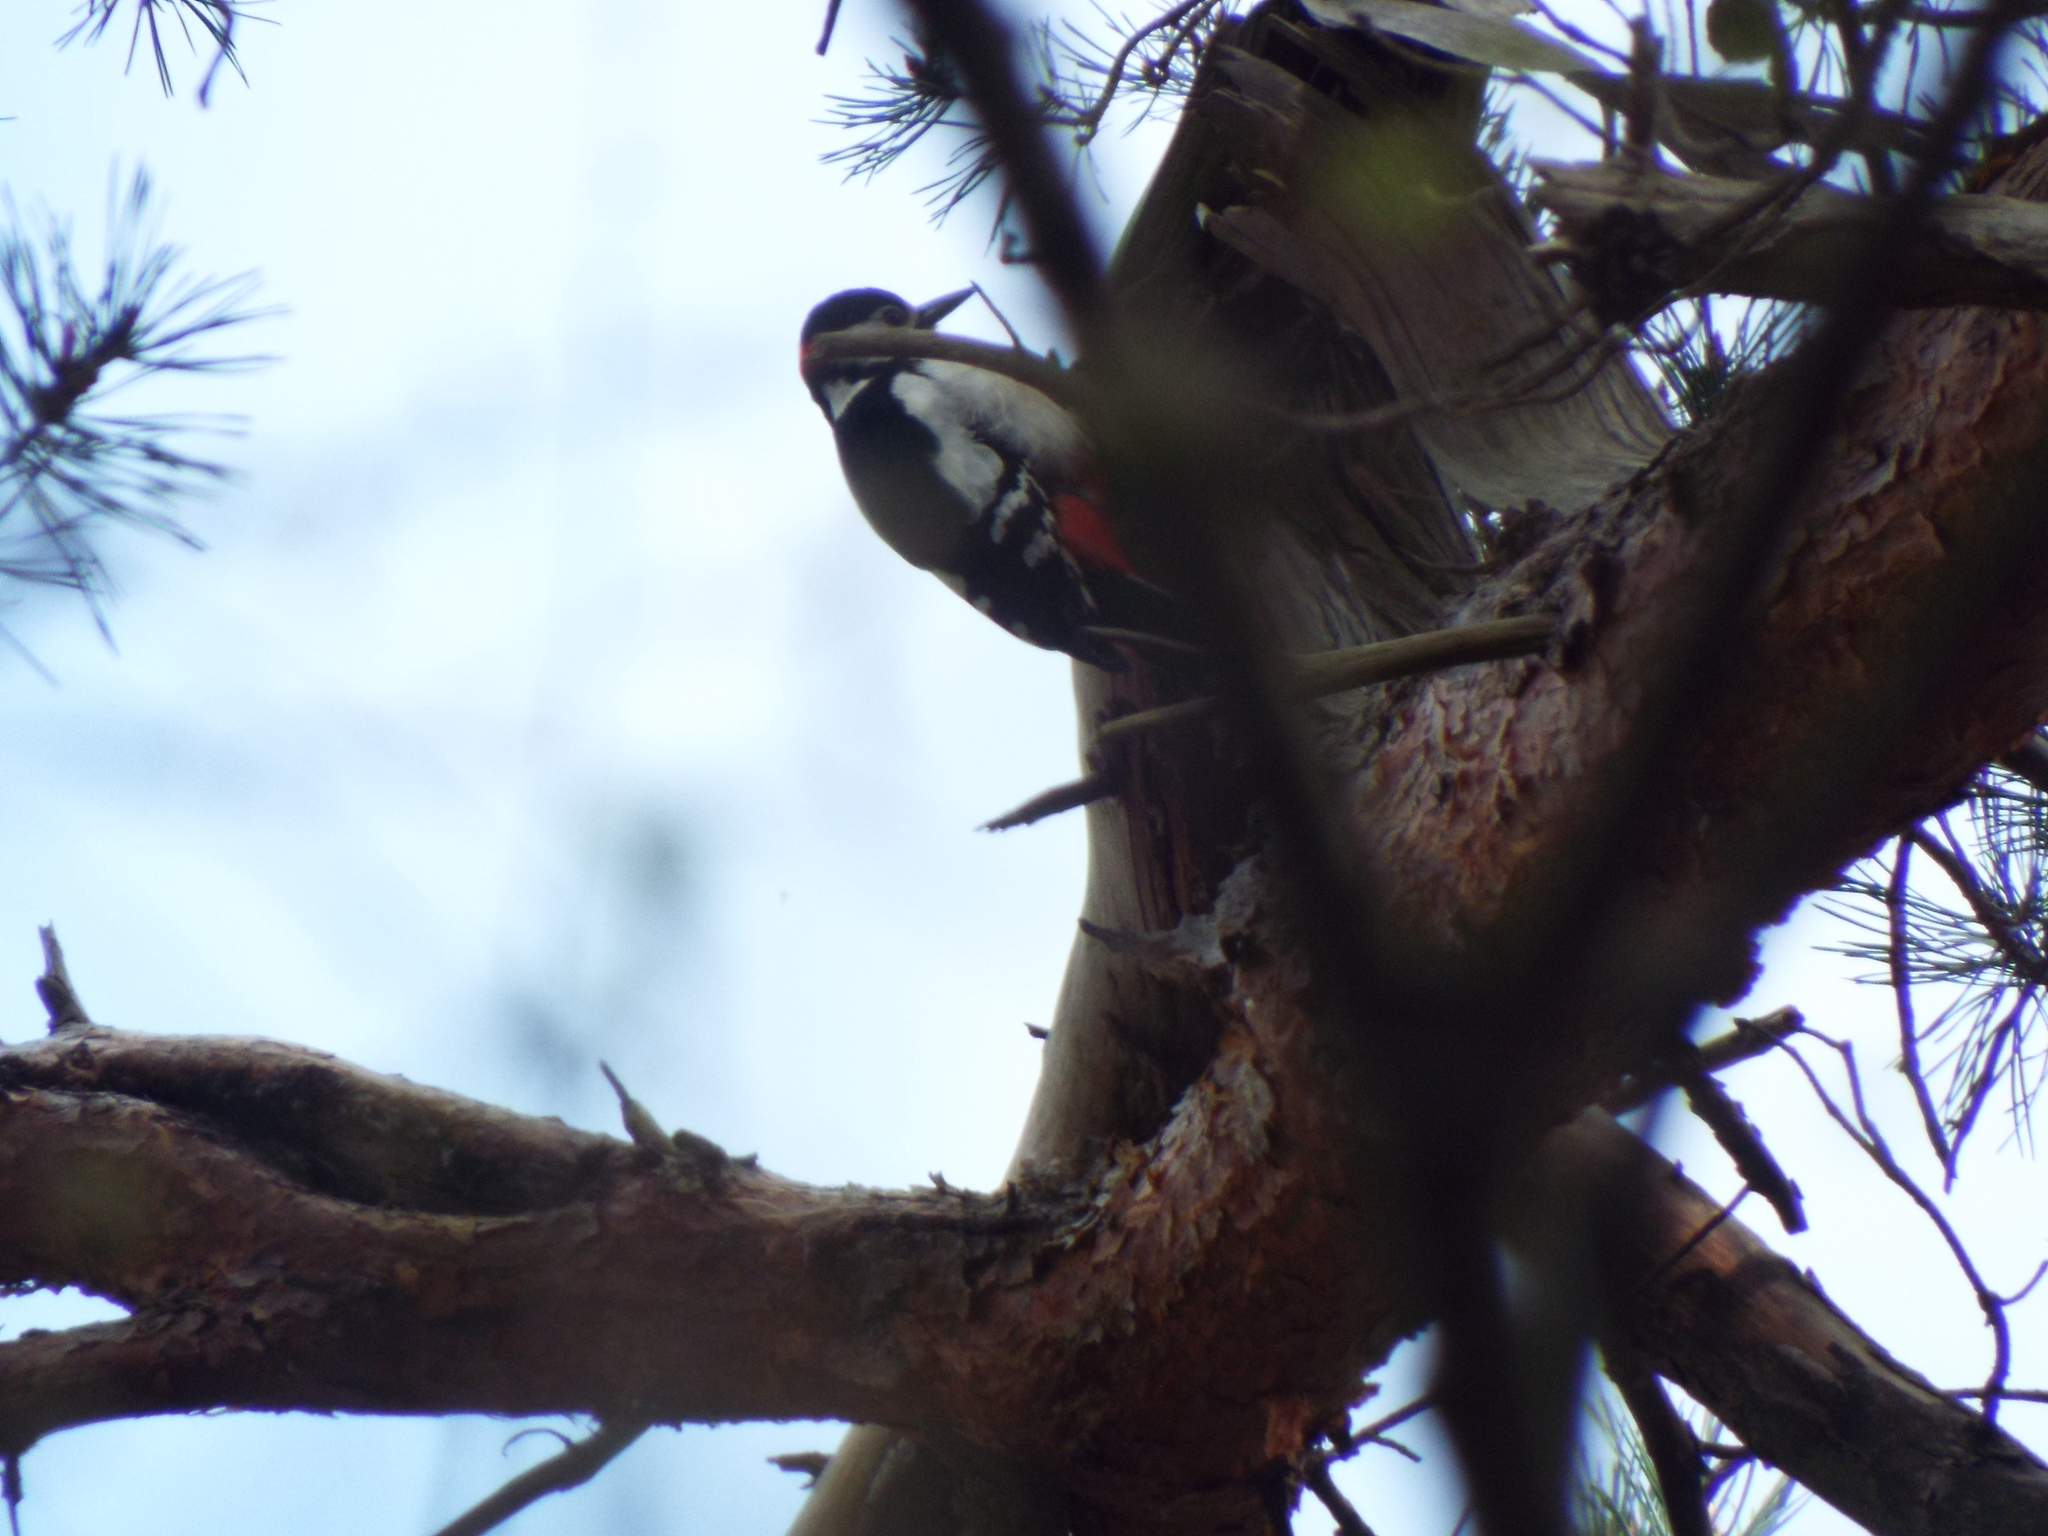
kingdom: Animalia
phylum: Chordata
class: Aves
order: Piciformes
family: Picidae
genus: Dendrocopos
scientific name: Dendrocopos major
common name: Great spotted woodpecker
